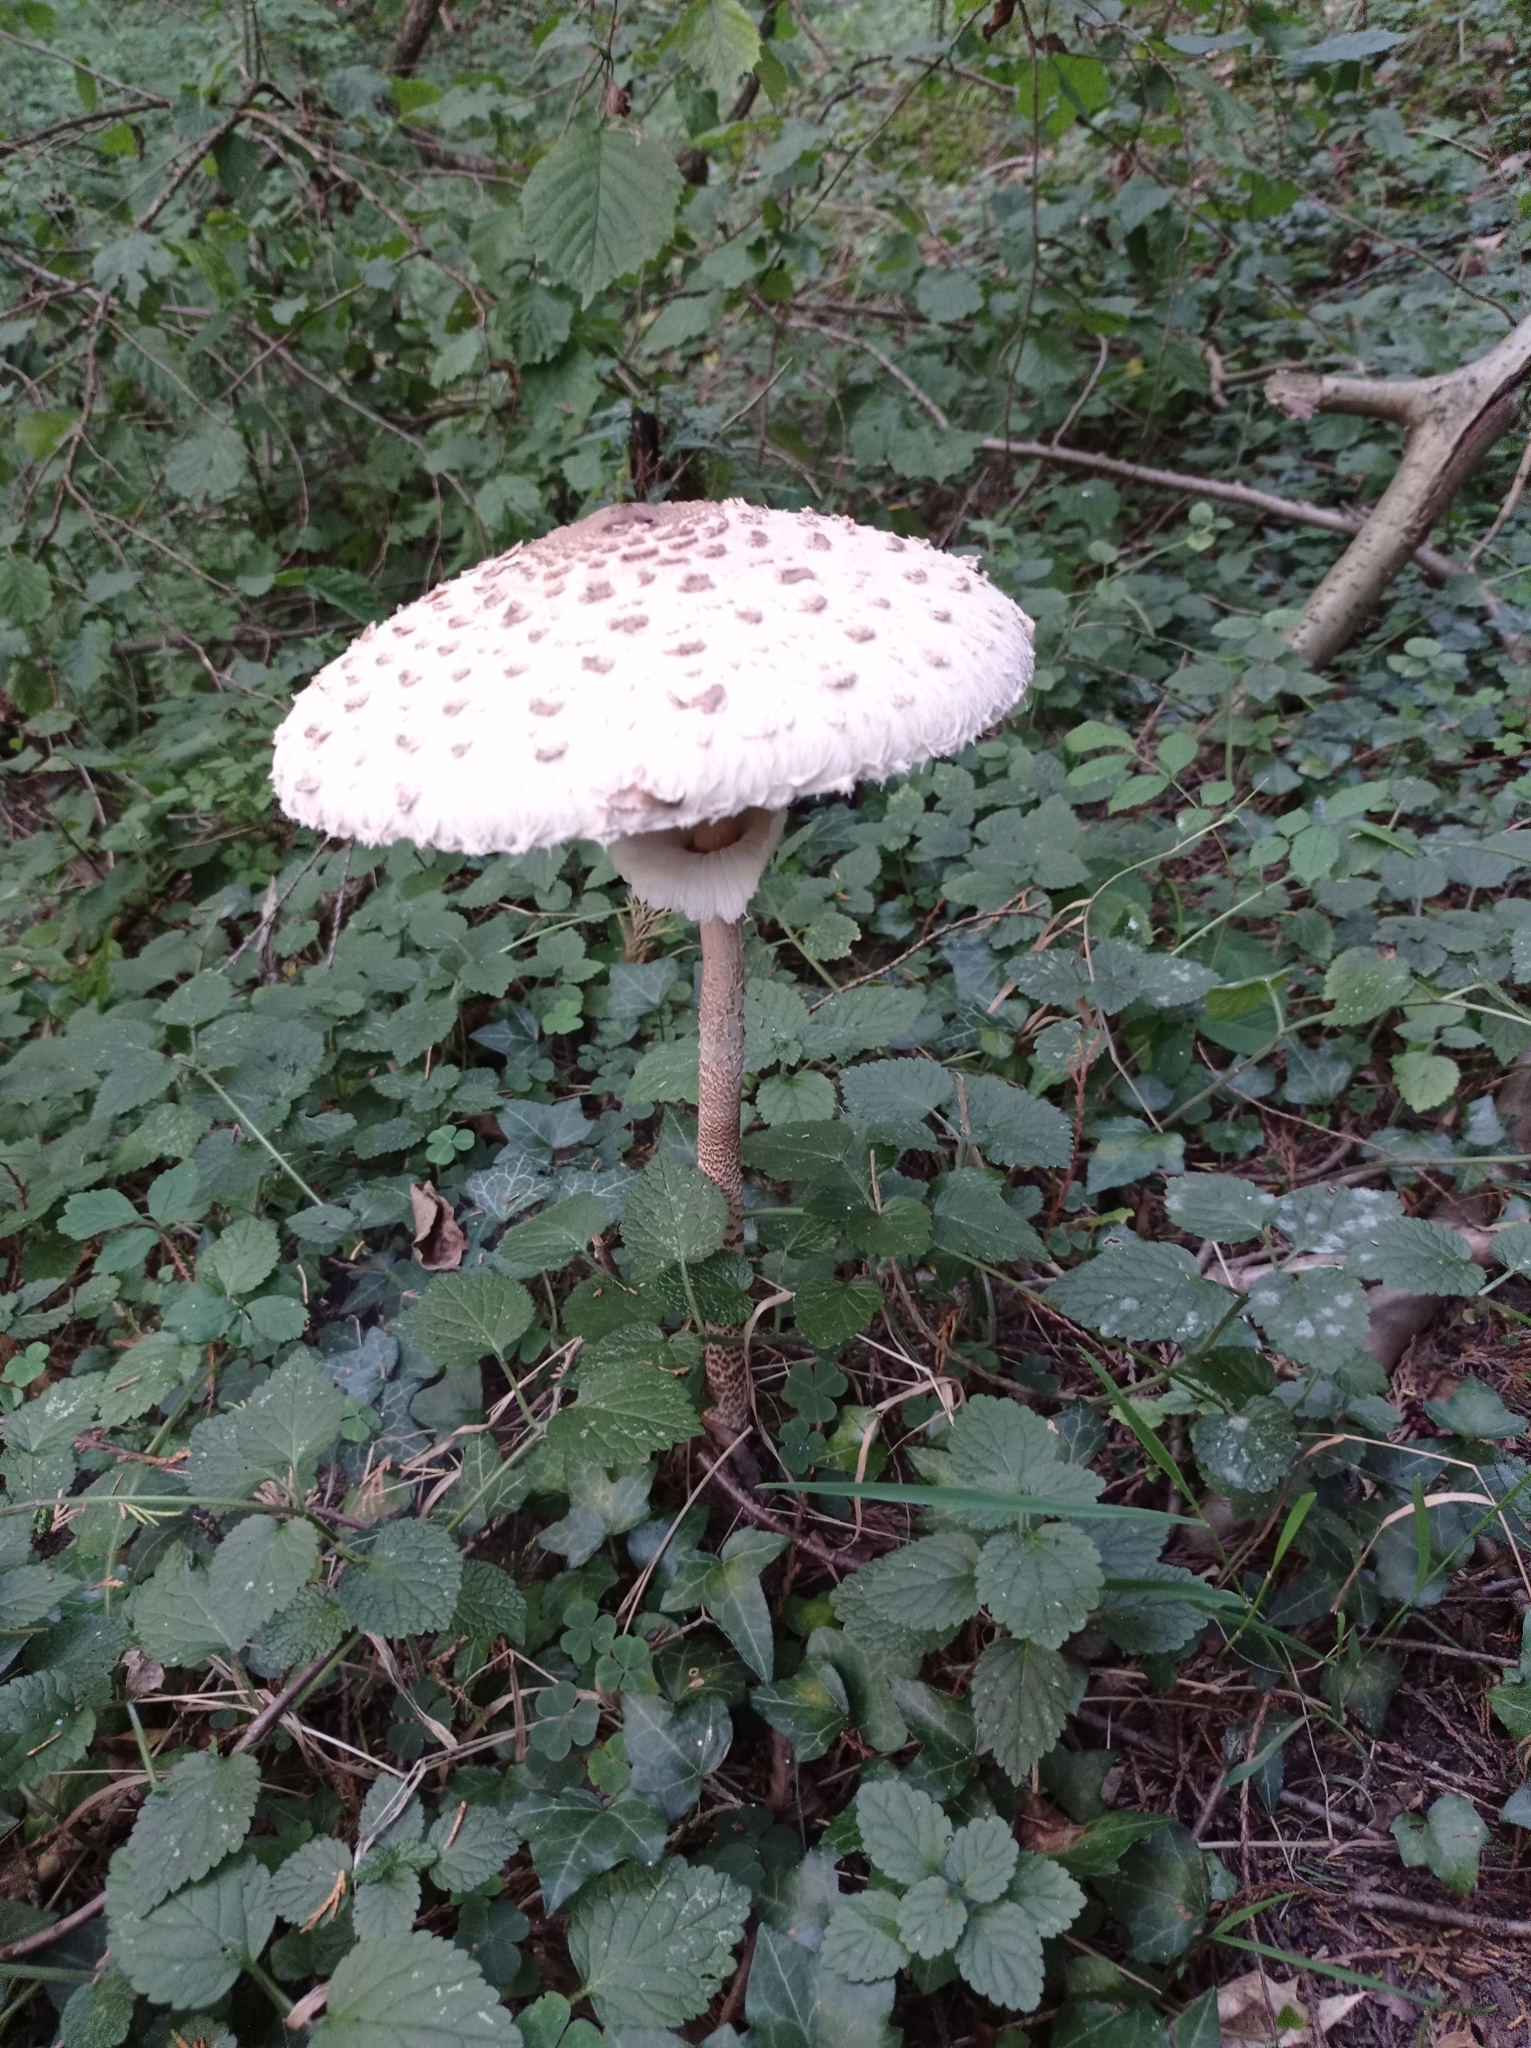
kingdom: Fungi
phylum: Basidiomycota
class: Agaricomycetes
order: Agaricales
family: Agaricaceae
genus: Macrolepiota
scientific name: Macrolepiota procera
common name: Parasol
